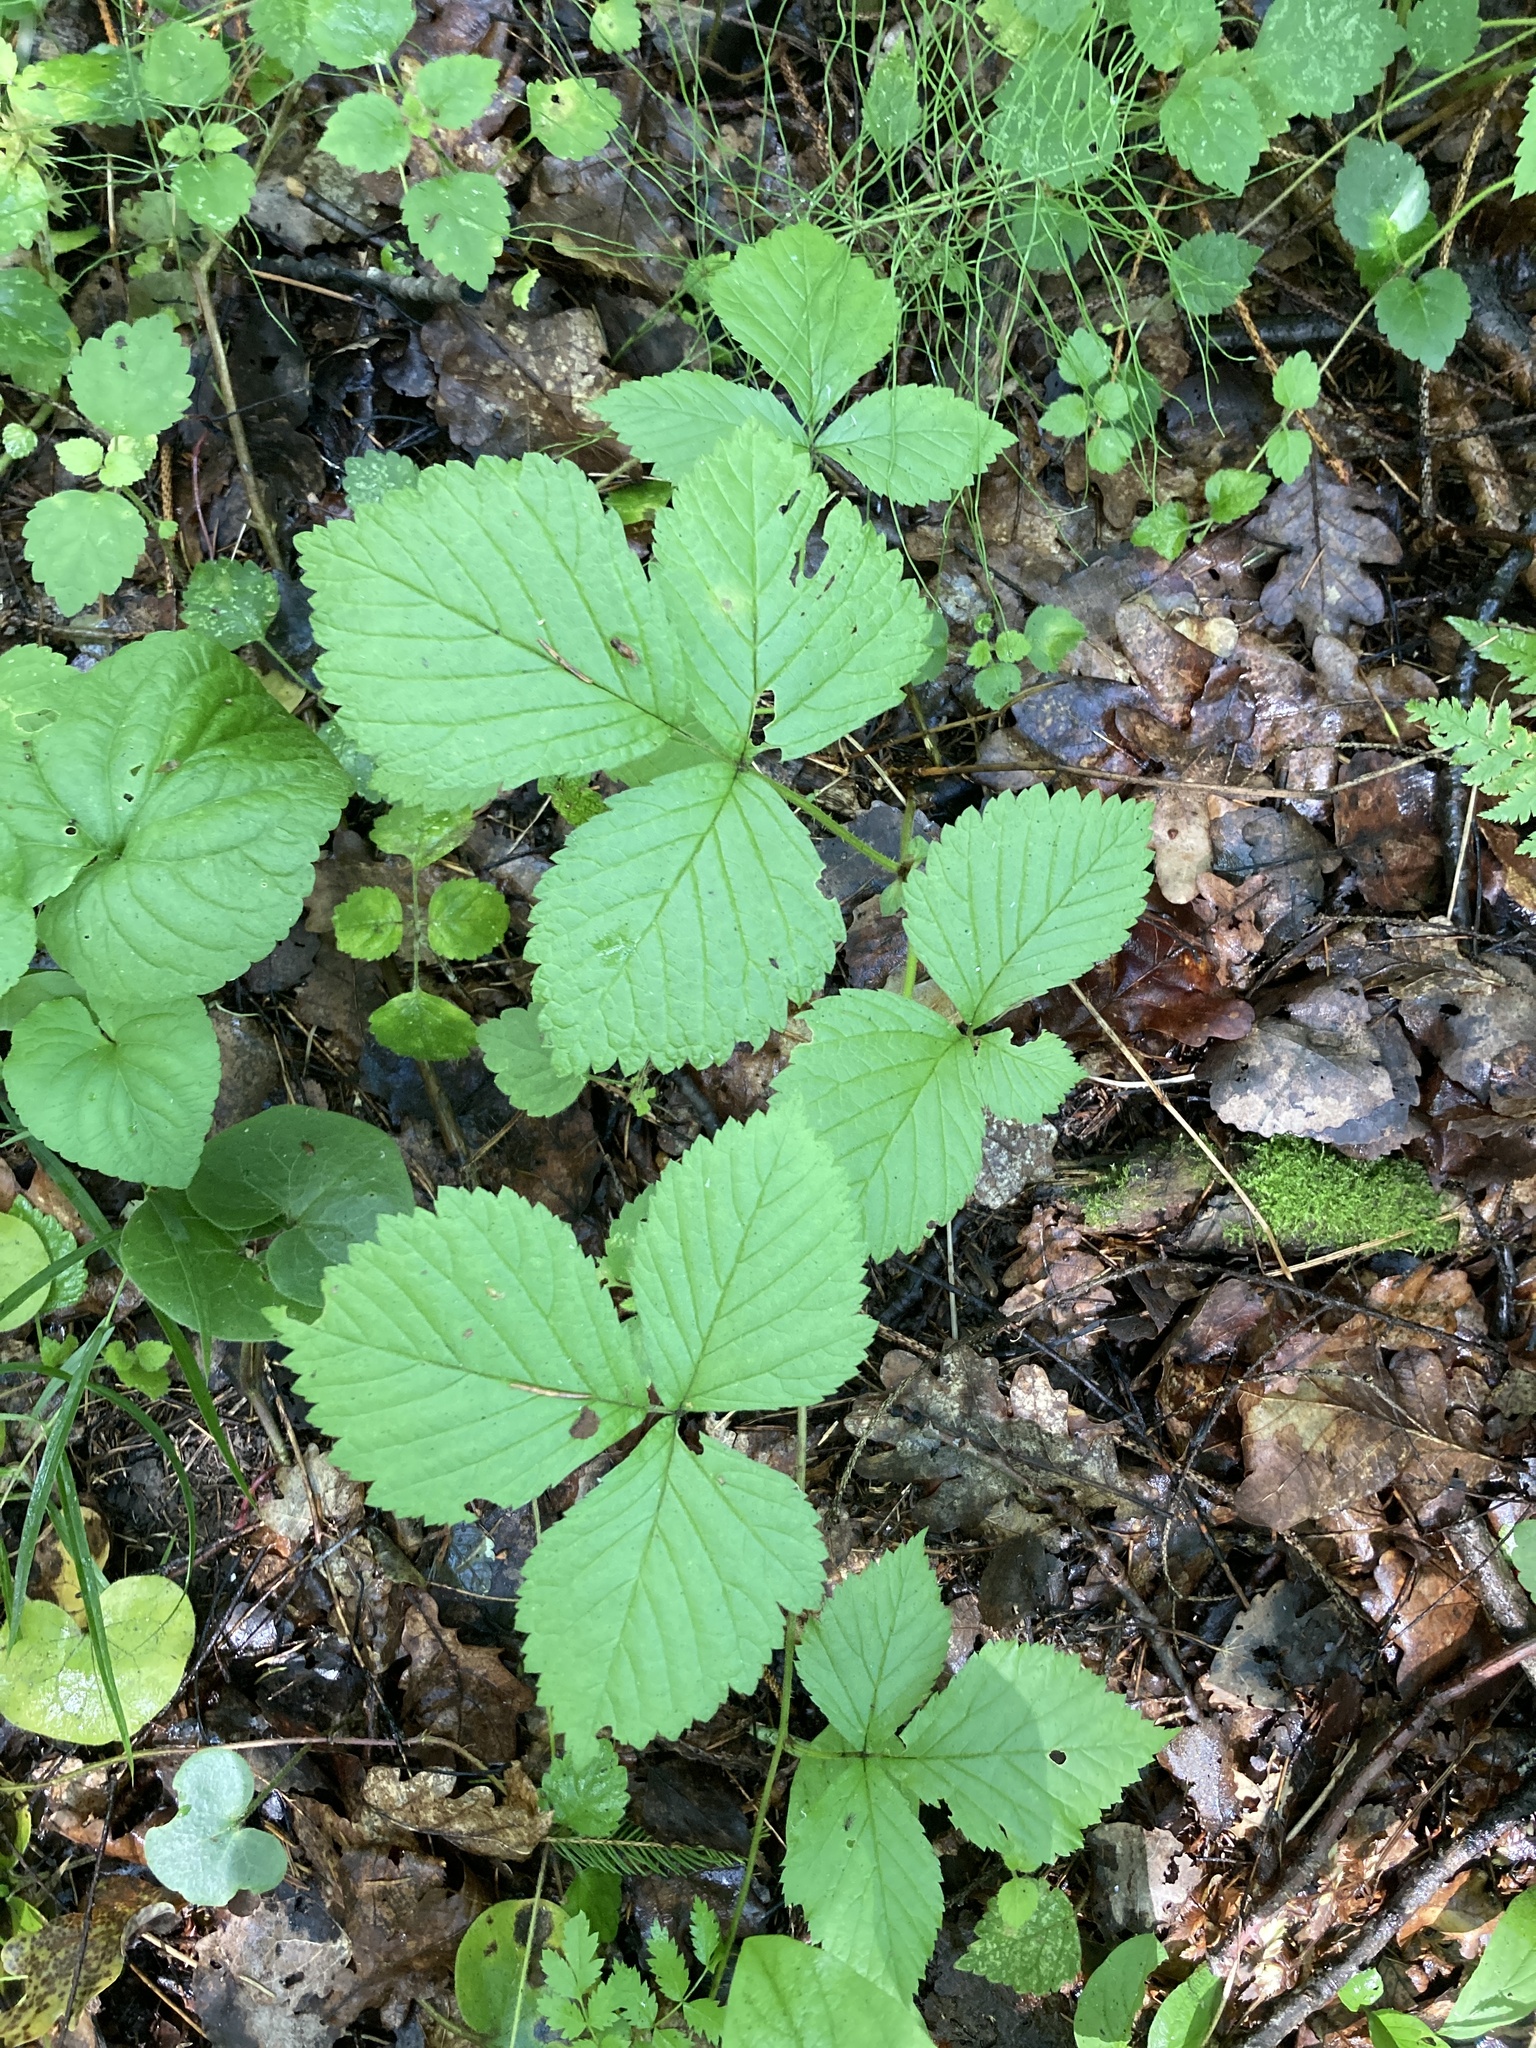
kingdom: Plantae
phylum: Tracheophyta
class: Magnoliopsida
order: Rosales
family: Rosaceae
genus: Rubus
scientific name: Rubus saxatilis
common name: Stone bramble
